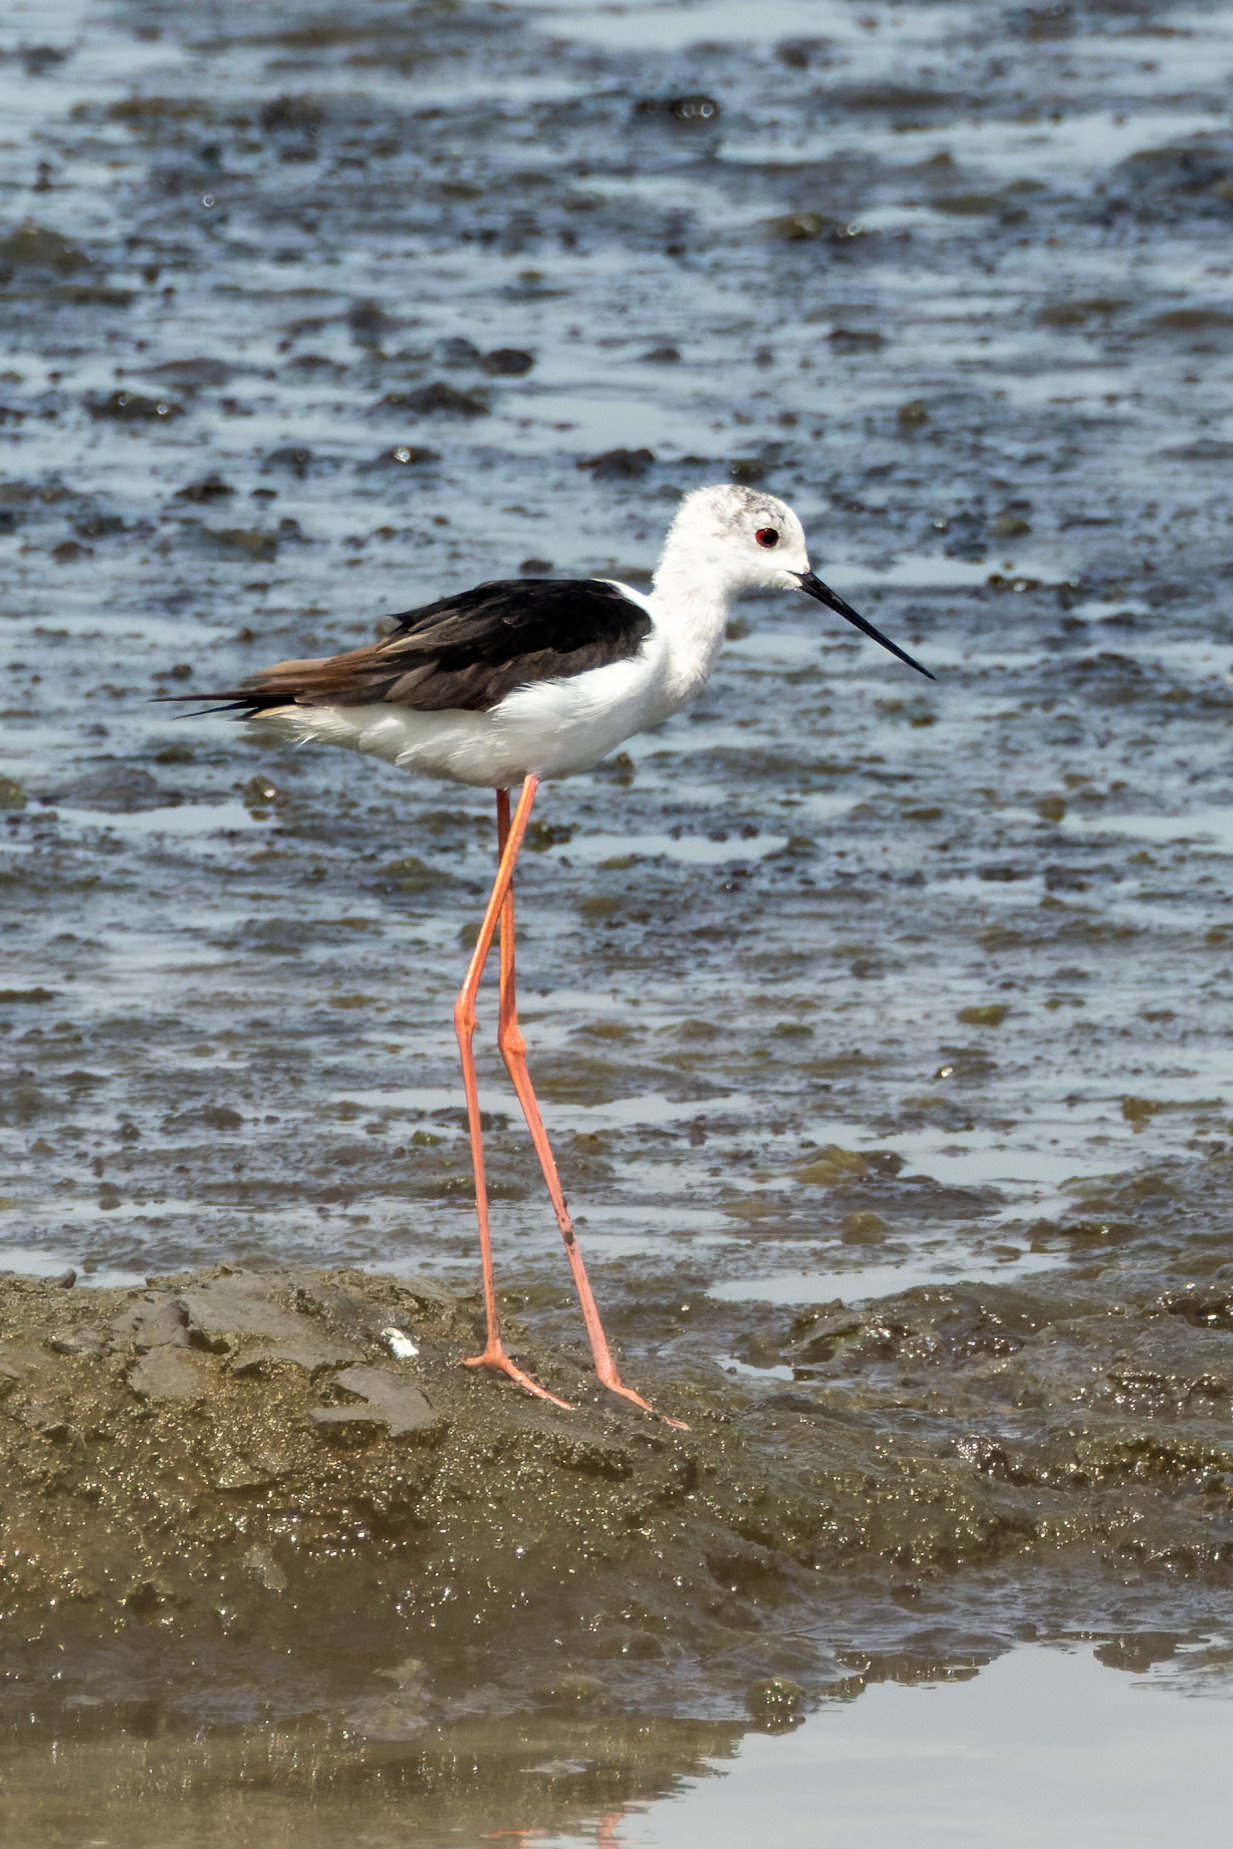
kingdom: Animalia
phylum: Chordata
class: Aves
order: Charadriiformes
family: Recurvirostridae
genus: Himantopus
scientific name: Himantopus himantopus
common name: Black-winged stilt
